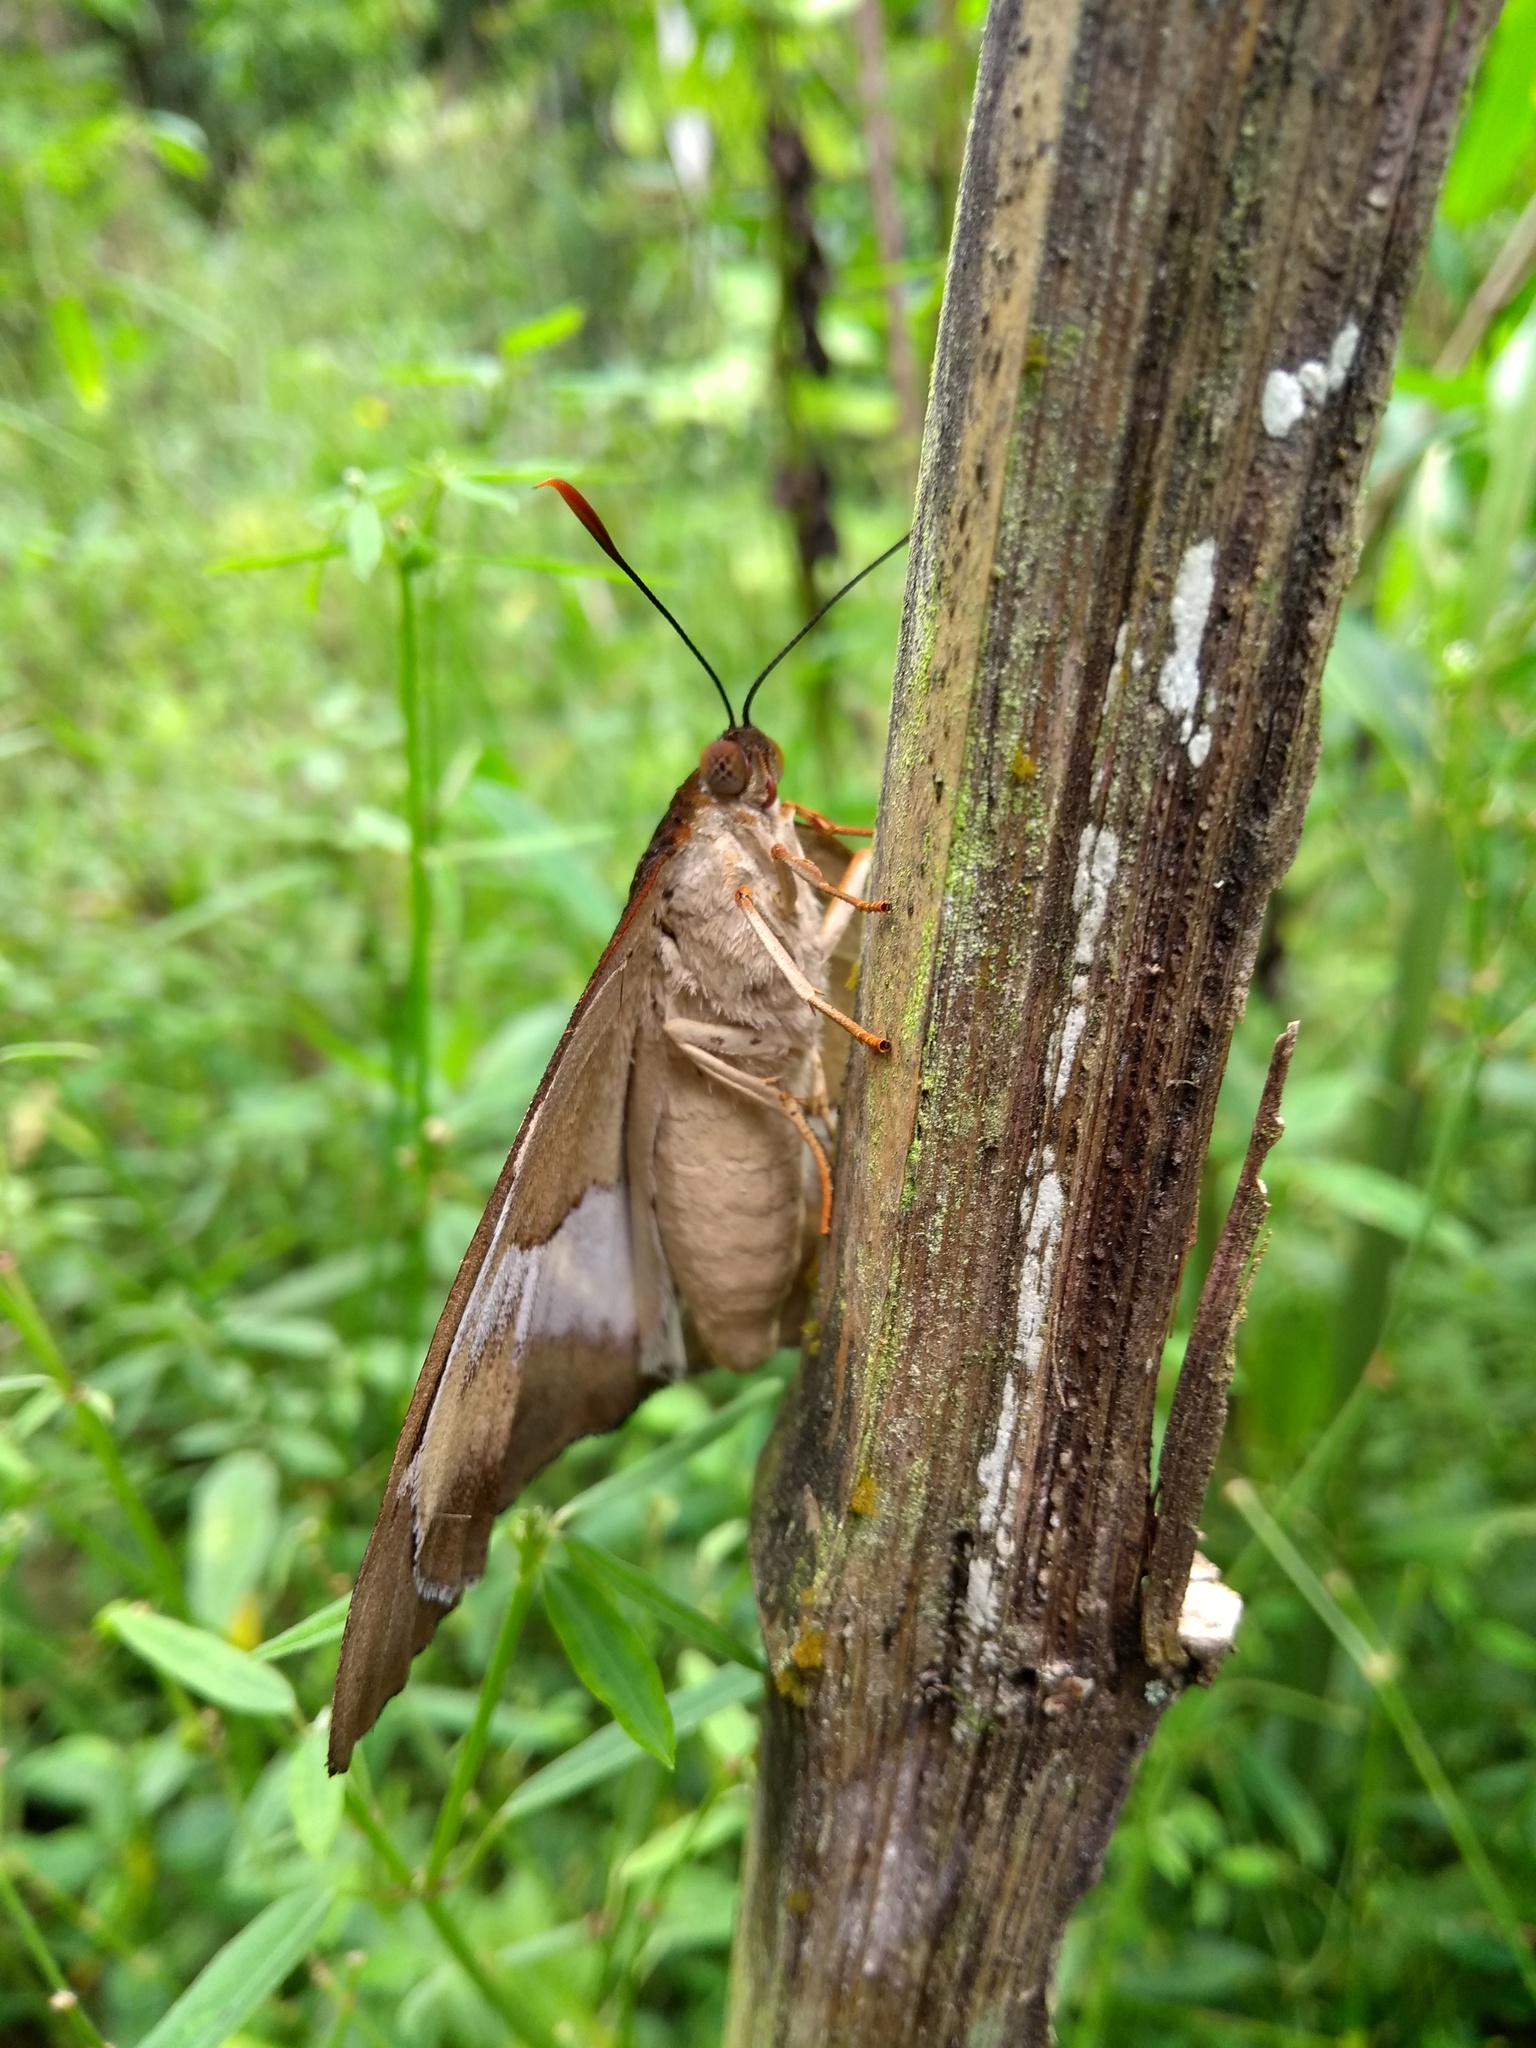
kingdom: Animalia
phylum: Arthropoda
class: Insecta
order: Lepidoptera
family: Castniidae
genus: Castniomera
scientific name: Castniomera atymnius
